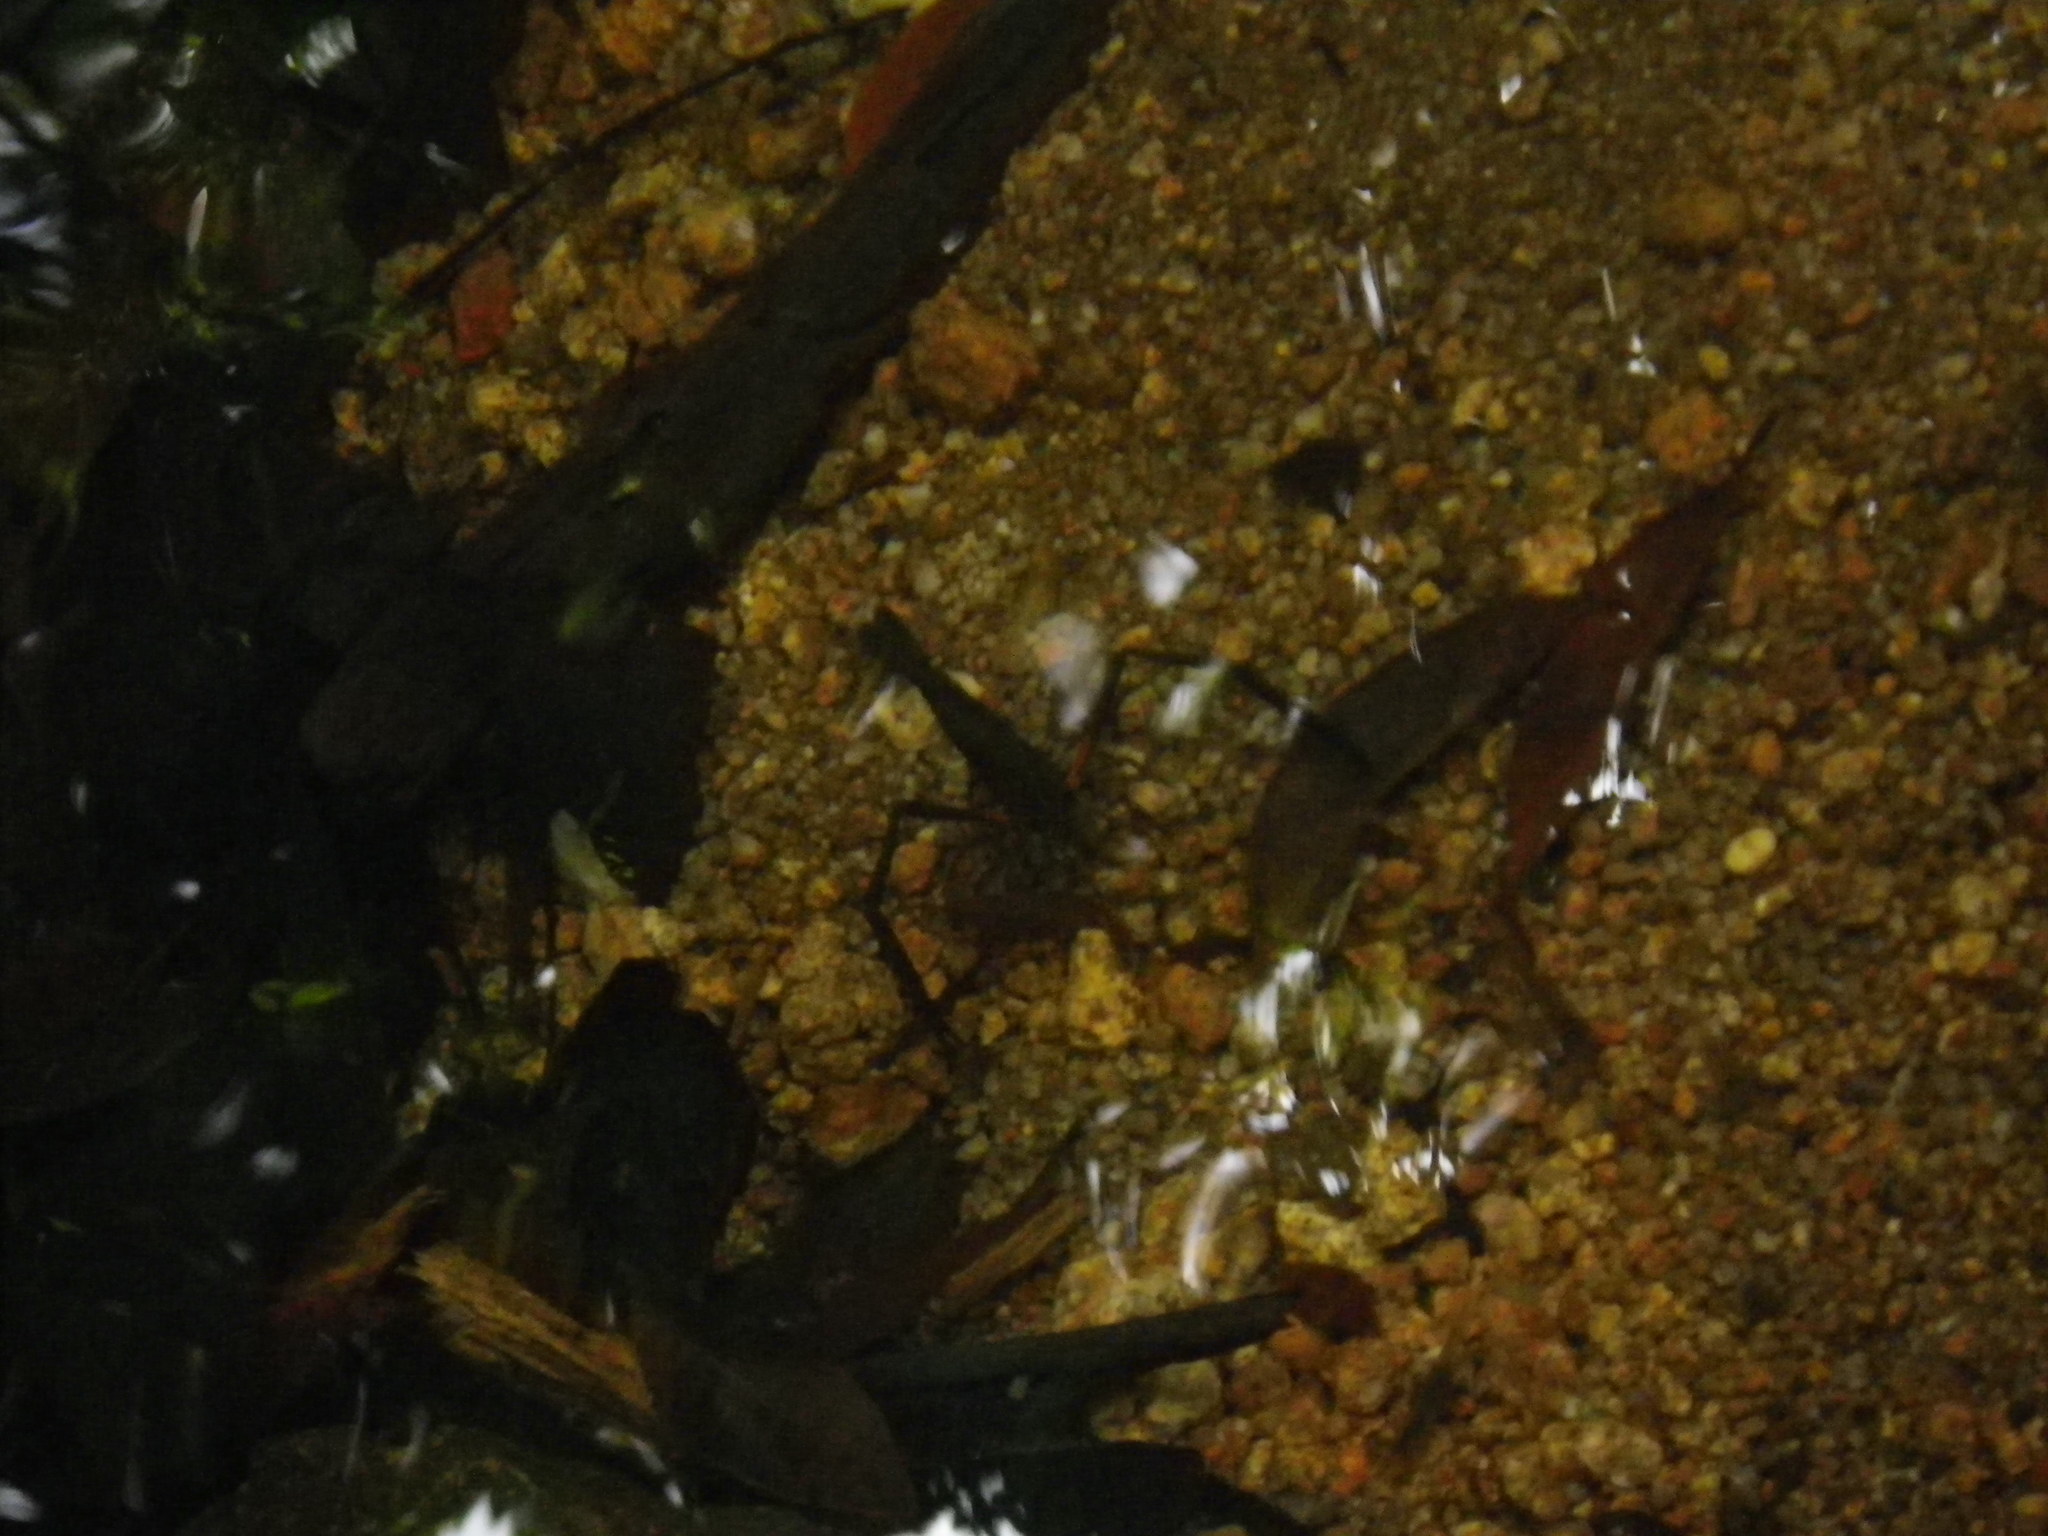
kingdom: Animalia
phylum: Arthropoda
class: Malacostraca
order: Decapoda
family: Palaemonidae
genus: Macrobrachium
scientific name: Macrobrachium tolmerum
